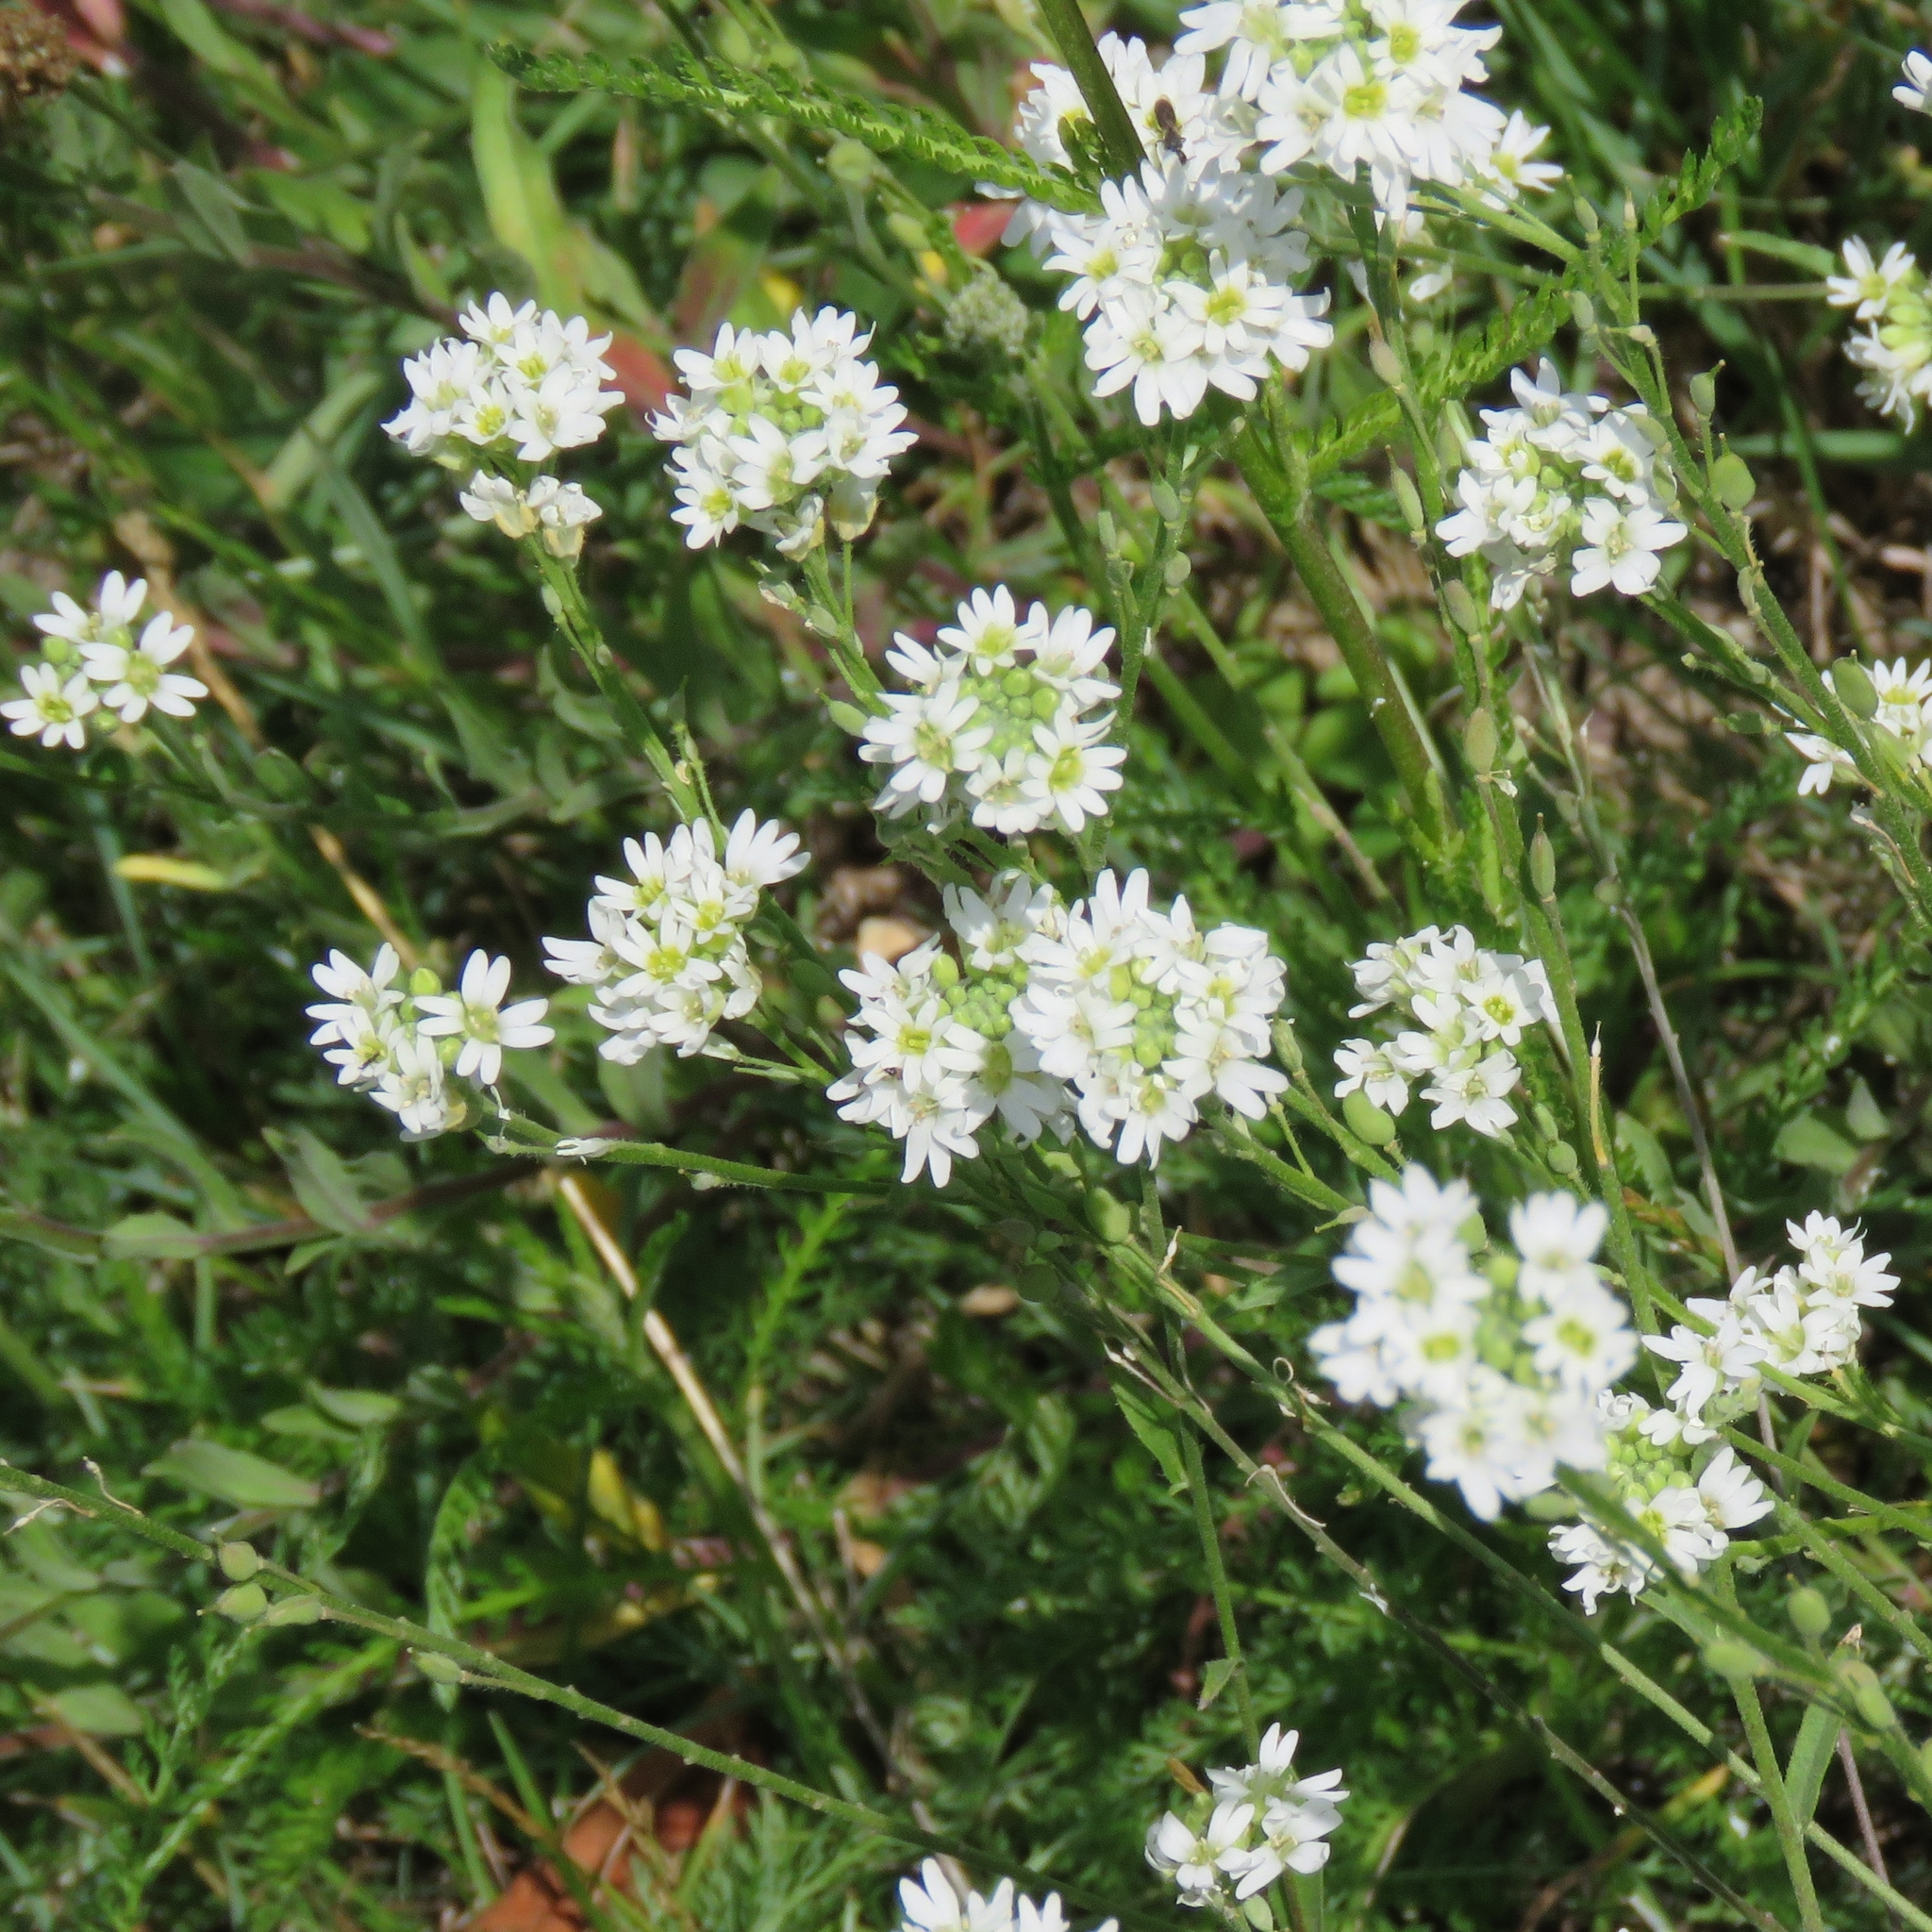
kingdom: Plantae
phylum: Tracheophyta
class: Magnoliopsida
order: Brassicales
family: Brassicaceae
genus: Berteroa
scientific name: Berteroa incana
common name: Hoary alison
